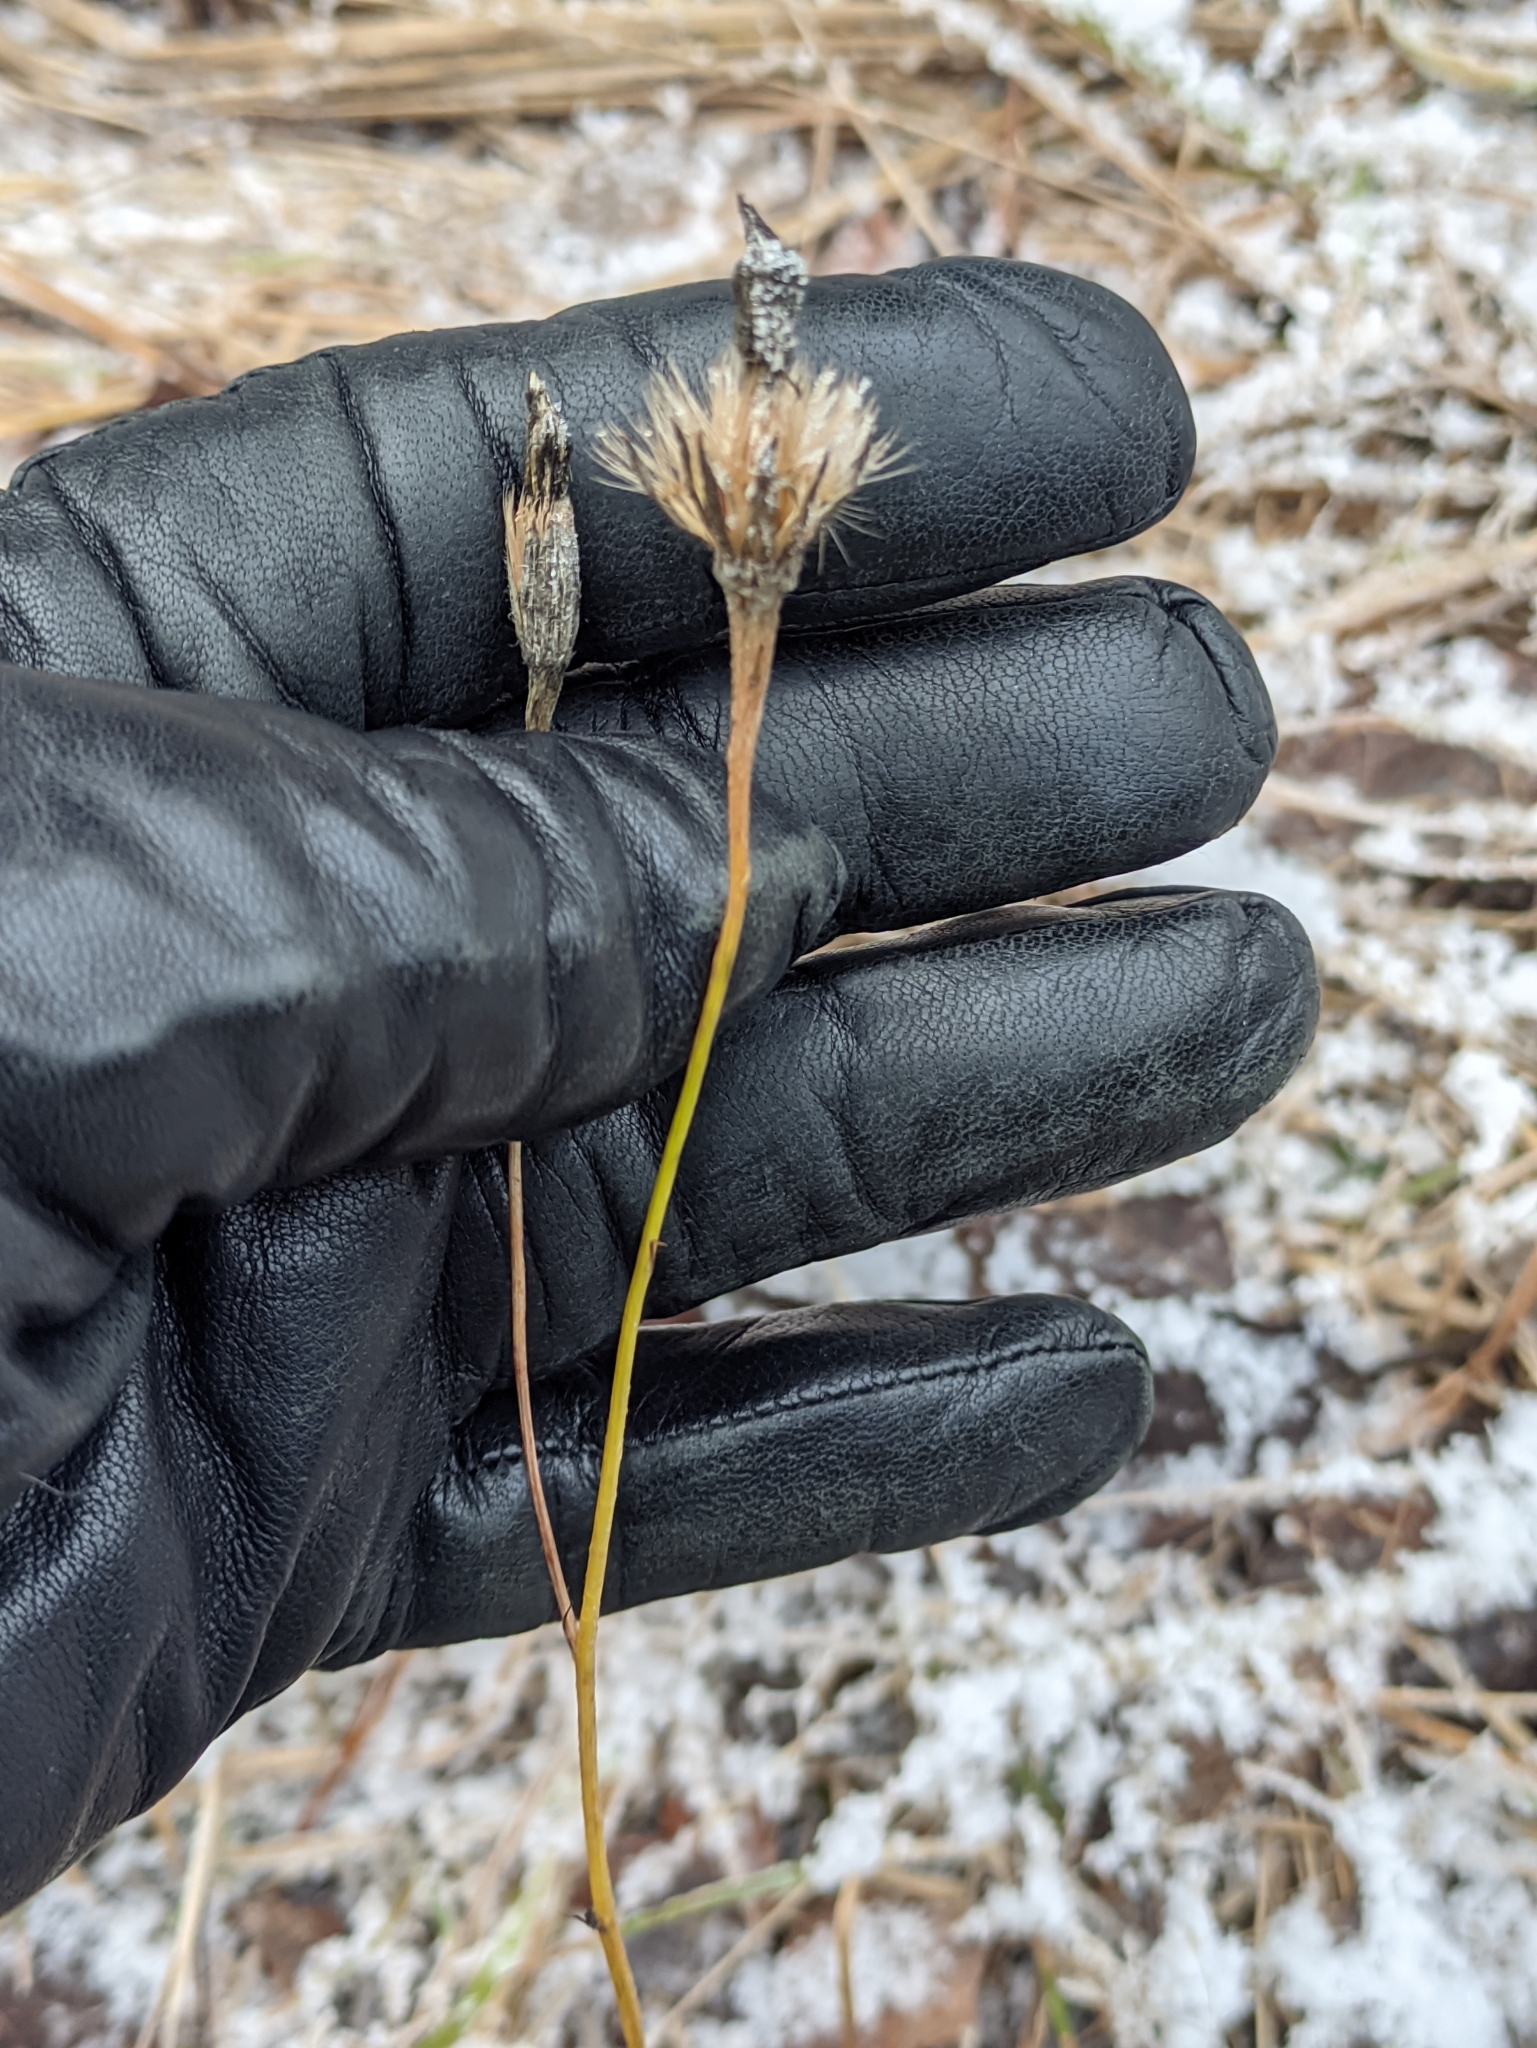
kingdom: Plantae
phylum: Tracheophyta
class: Magnoliopsida
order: Asterales
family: Asteraceae
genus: Scorzoneroides
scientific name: Scorzoneroides autumnalis
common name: Autumn hawkbit
